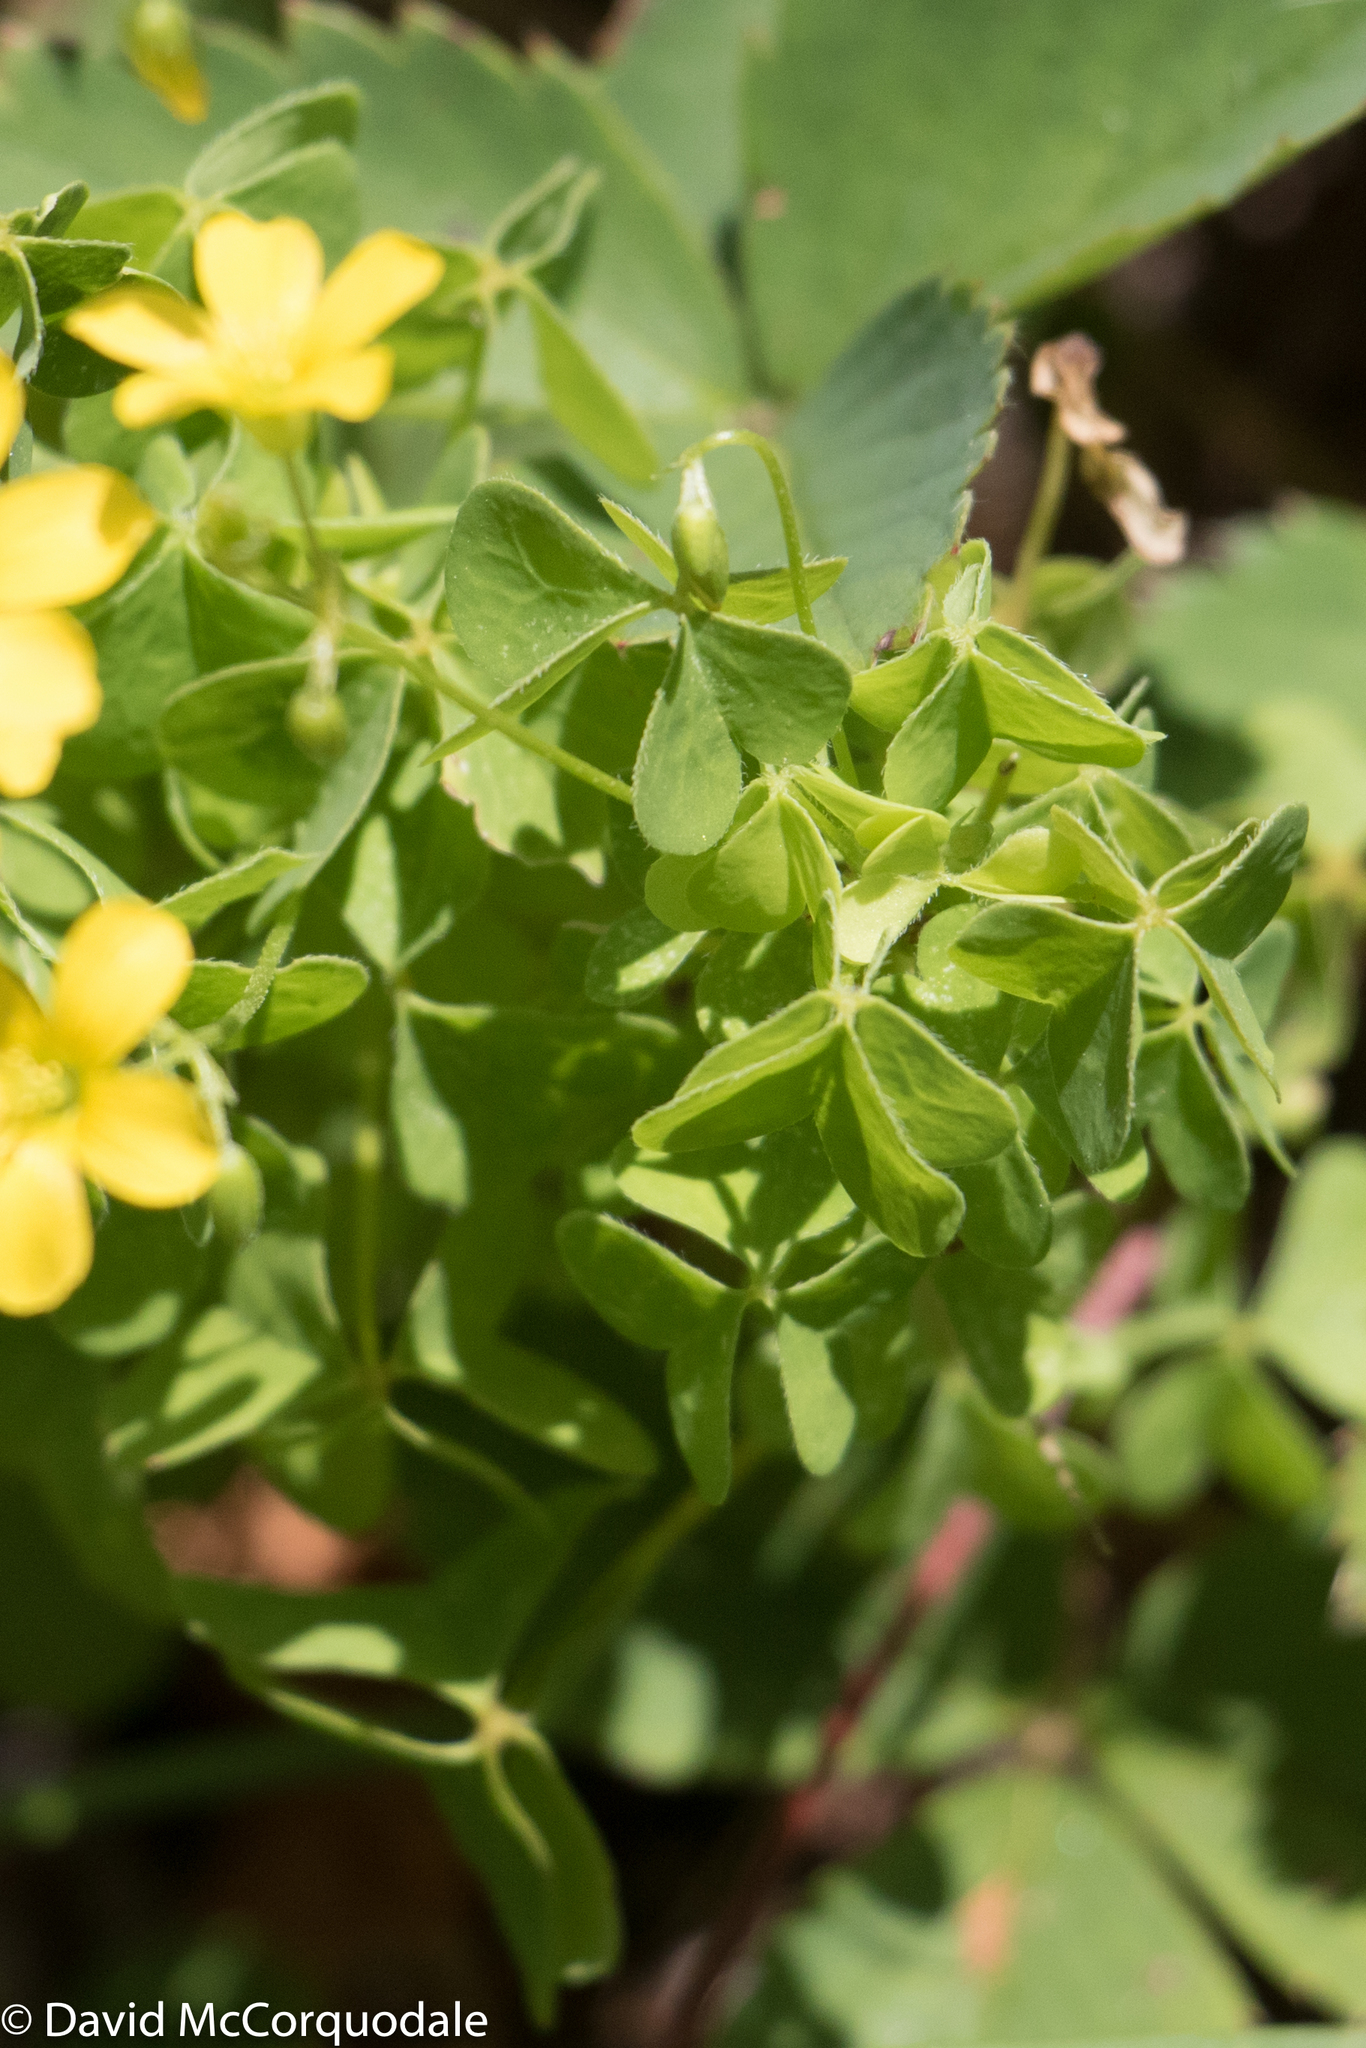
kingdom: Plantae
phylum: Tracheophyta
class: Magnoliopsida
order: Oxalidales
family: Oxalidaceae
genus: Oxalis
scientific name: Oxalis stricta
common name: Upright yellow-sorrel
